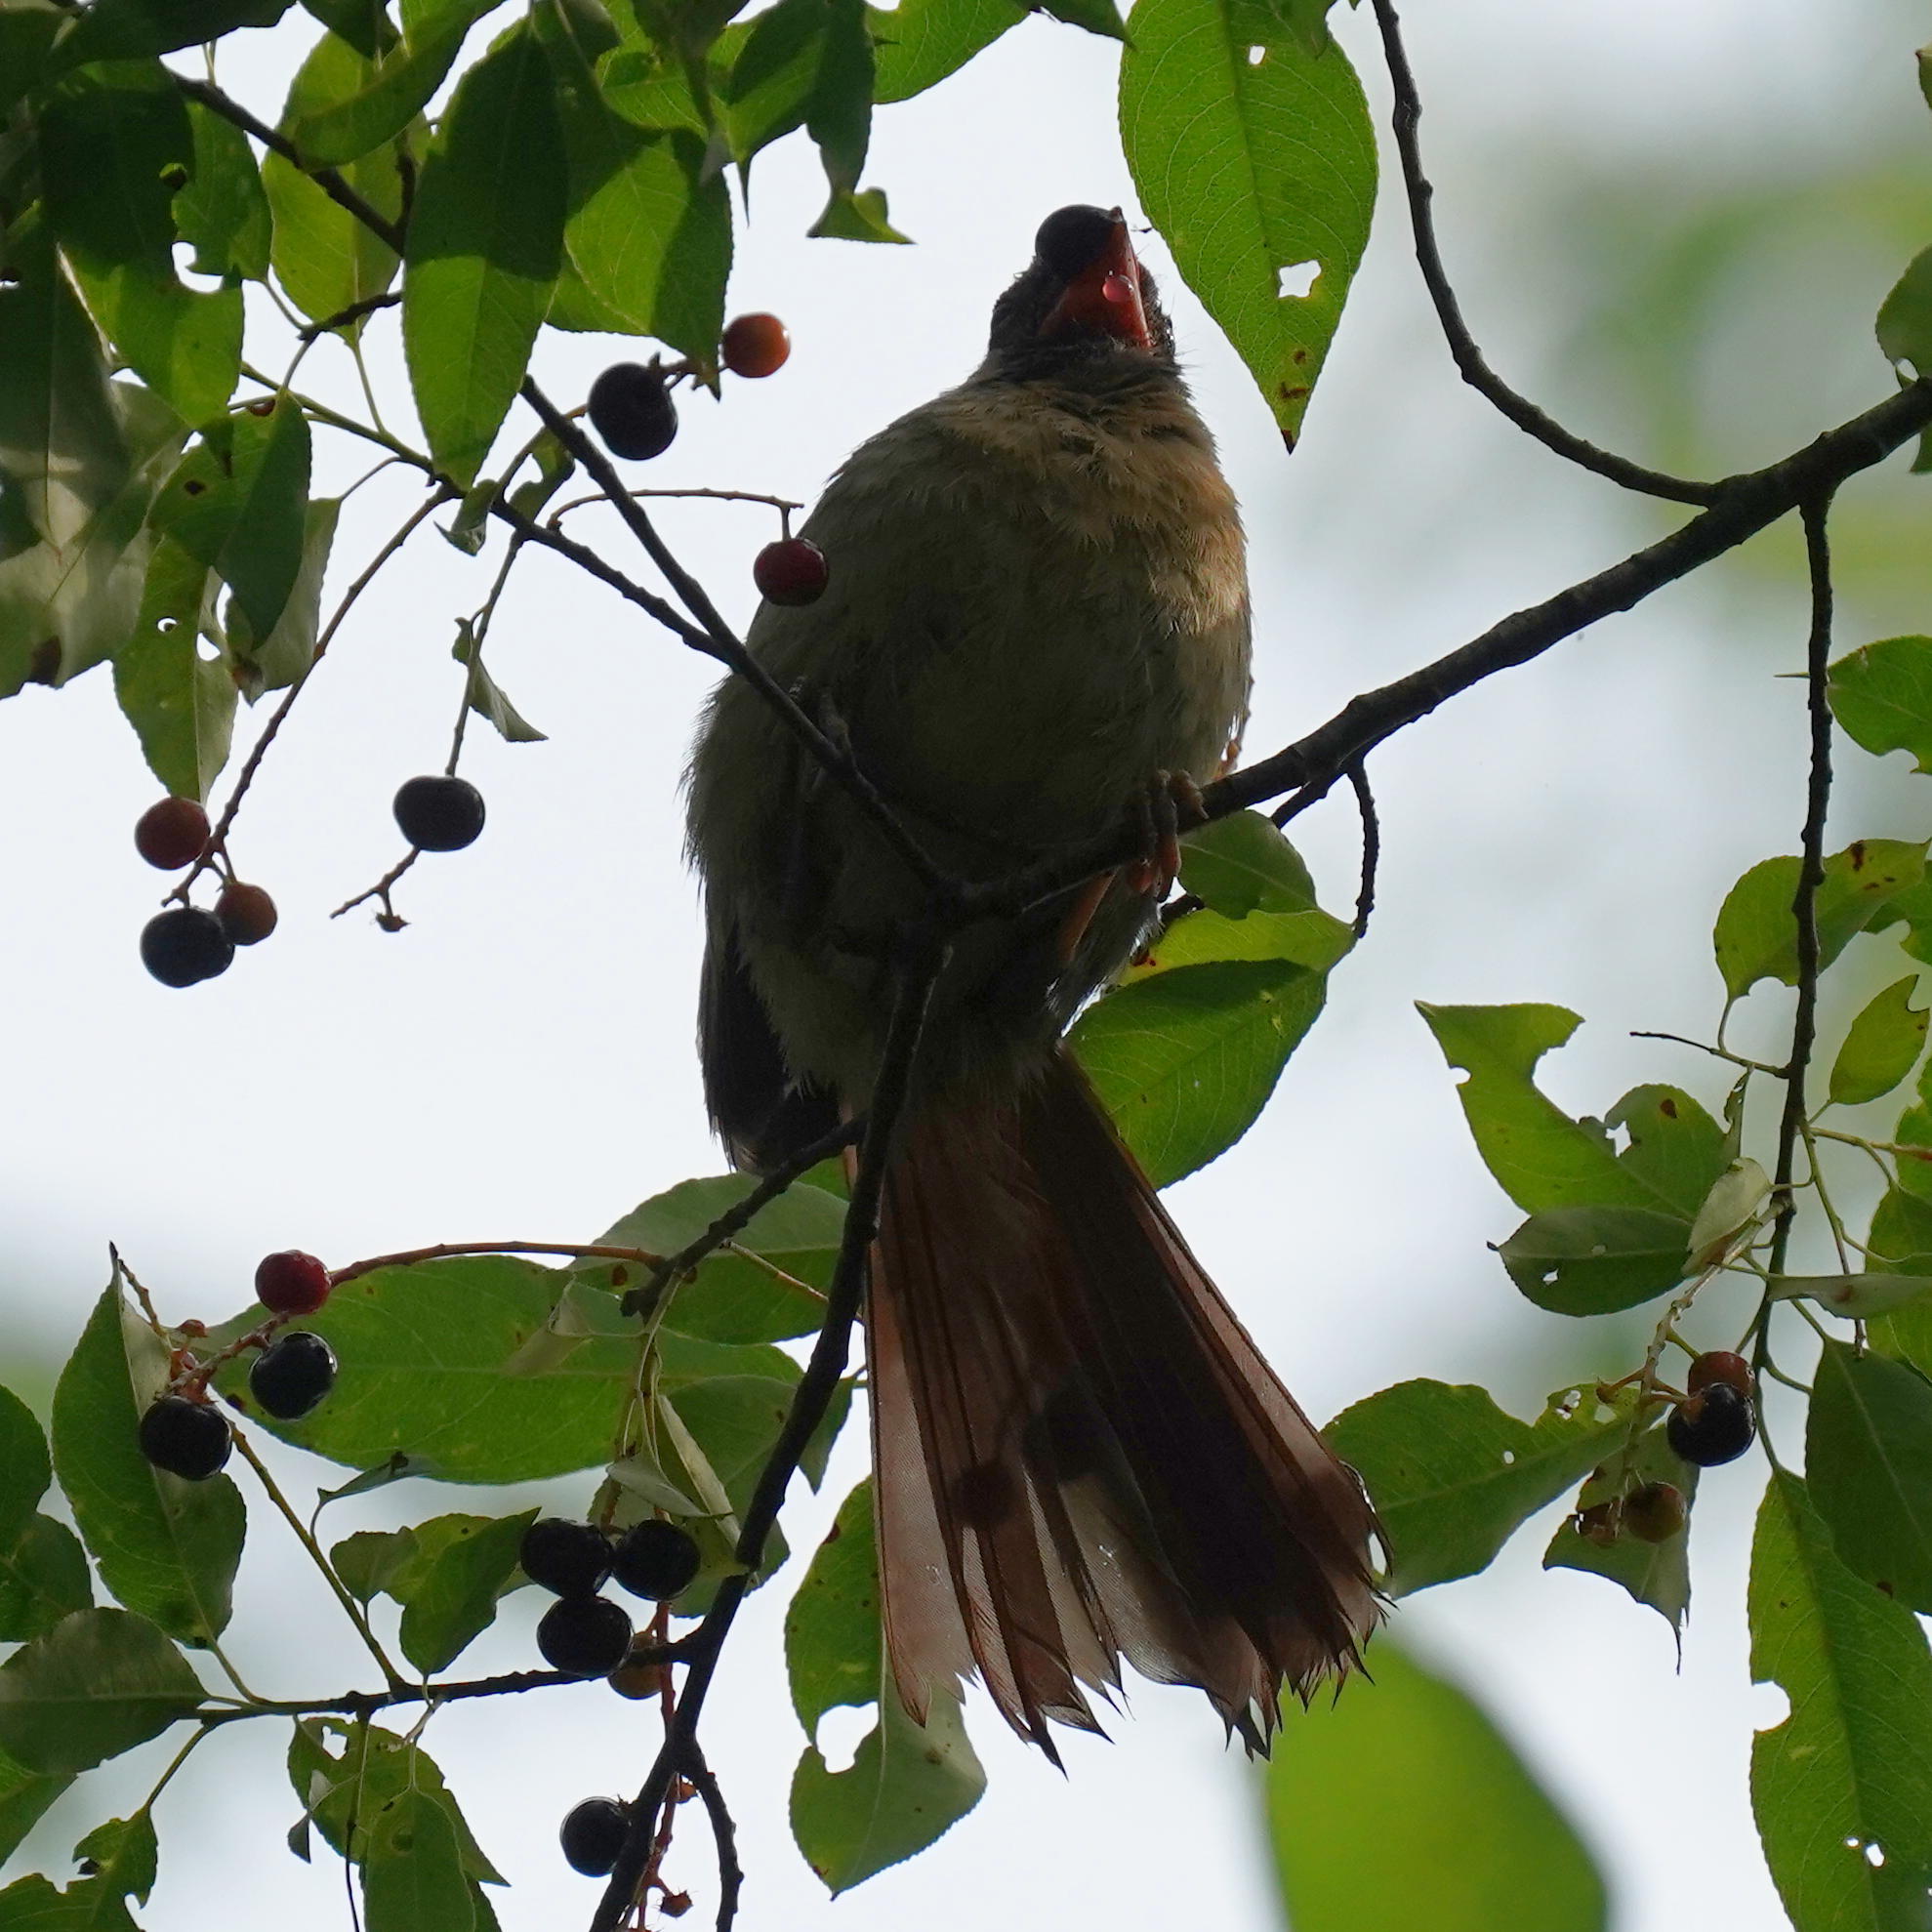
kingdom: Animalia
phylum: Chordata
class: Aves
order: Passeriformes
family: Cardinalidae
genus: Cardinalis
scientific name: Cardinalis cardinalis
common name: Northern cardinal
